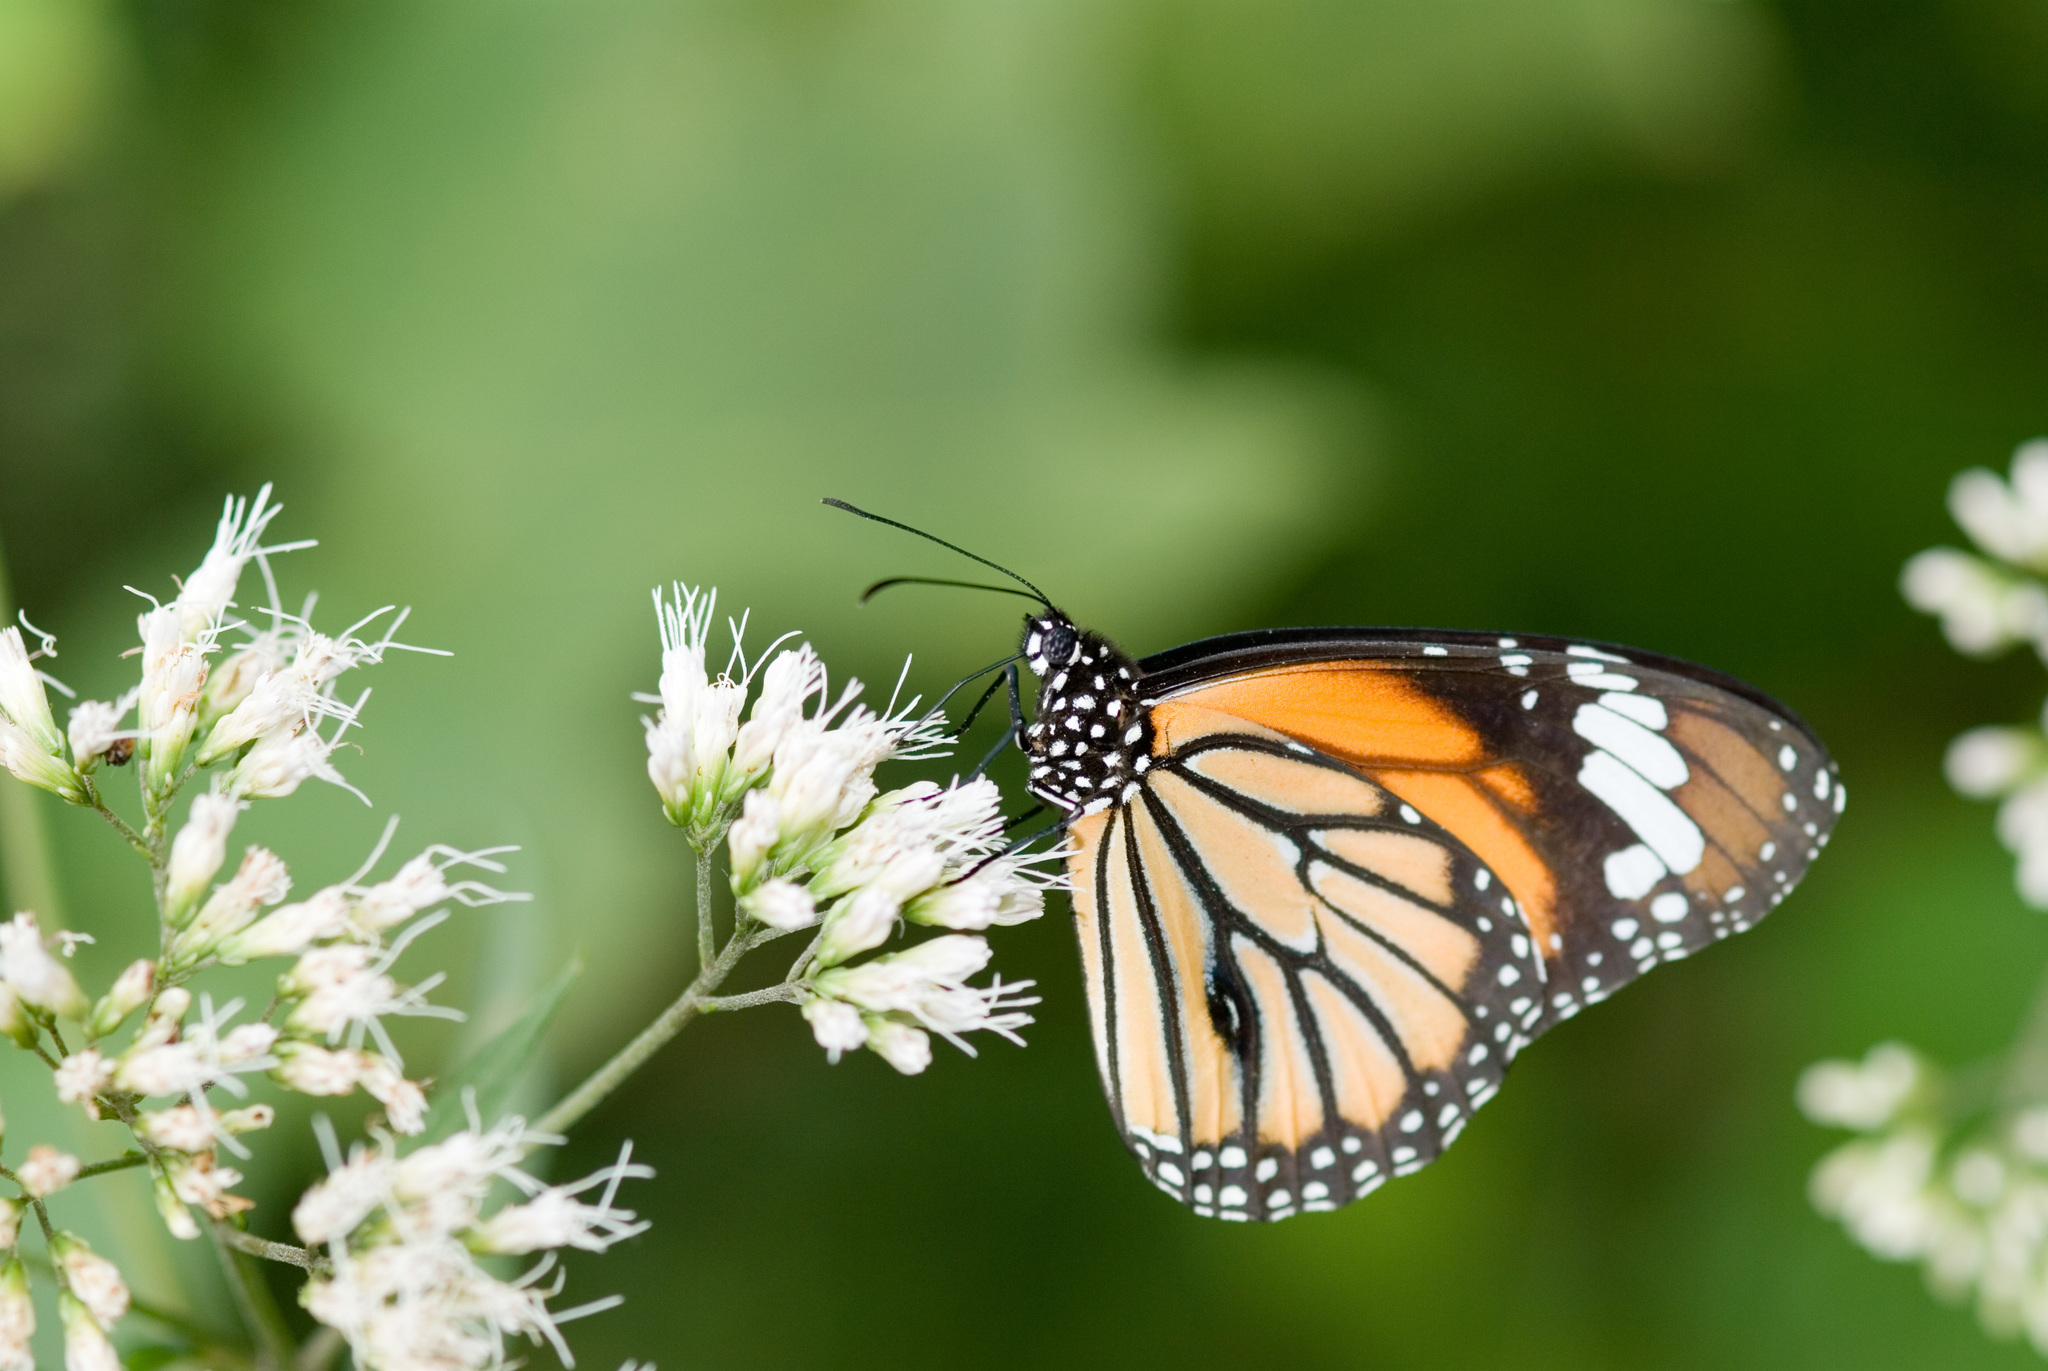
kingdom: Animalia
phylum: Arthropoda
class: Insecta
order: Lepidoptera
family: Nymphalidae
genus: Danaus
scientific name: Danaus genutia
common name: Common tiger butterfly
